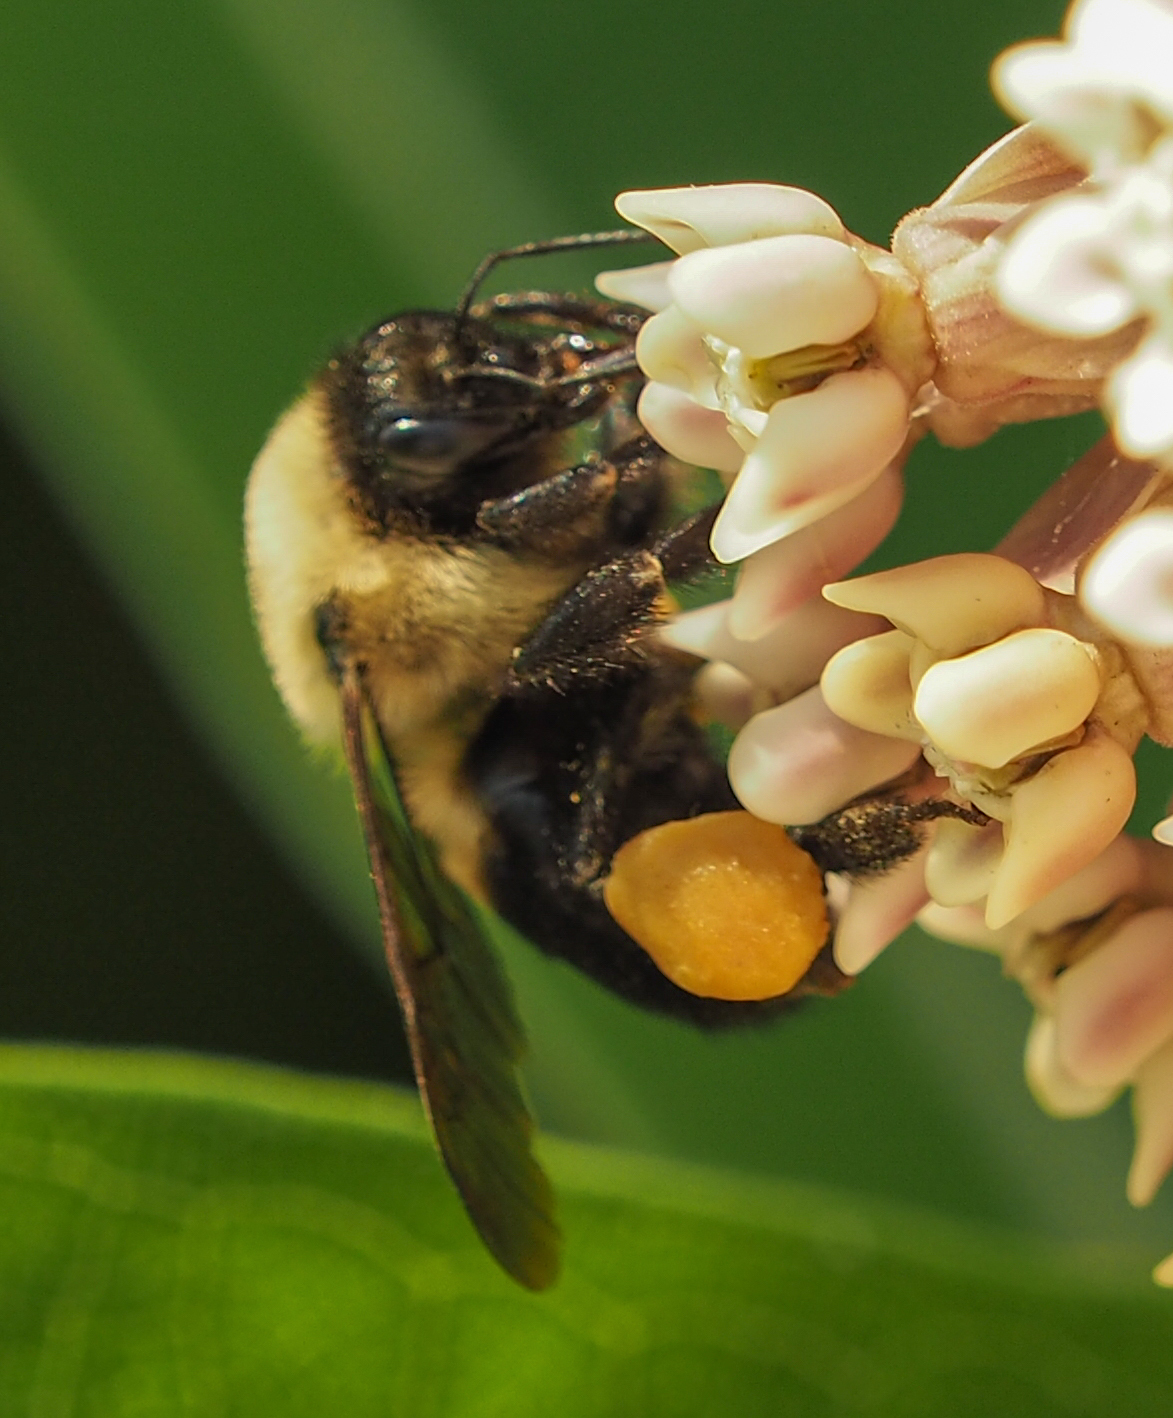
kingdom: Animalia
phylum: Arthropoda
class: Insecta
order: Hymenoptera
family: Apidae
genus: Bombus
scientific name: Bombus griseocollis
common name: Brown-belted bumble bee
